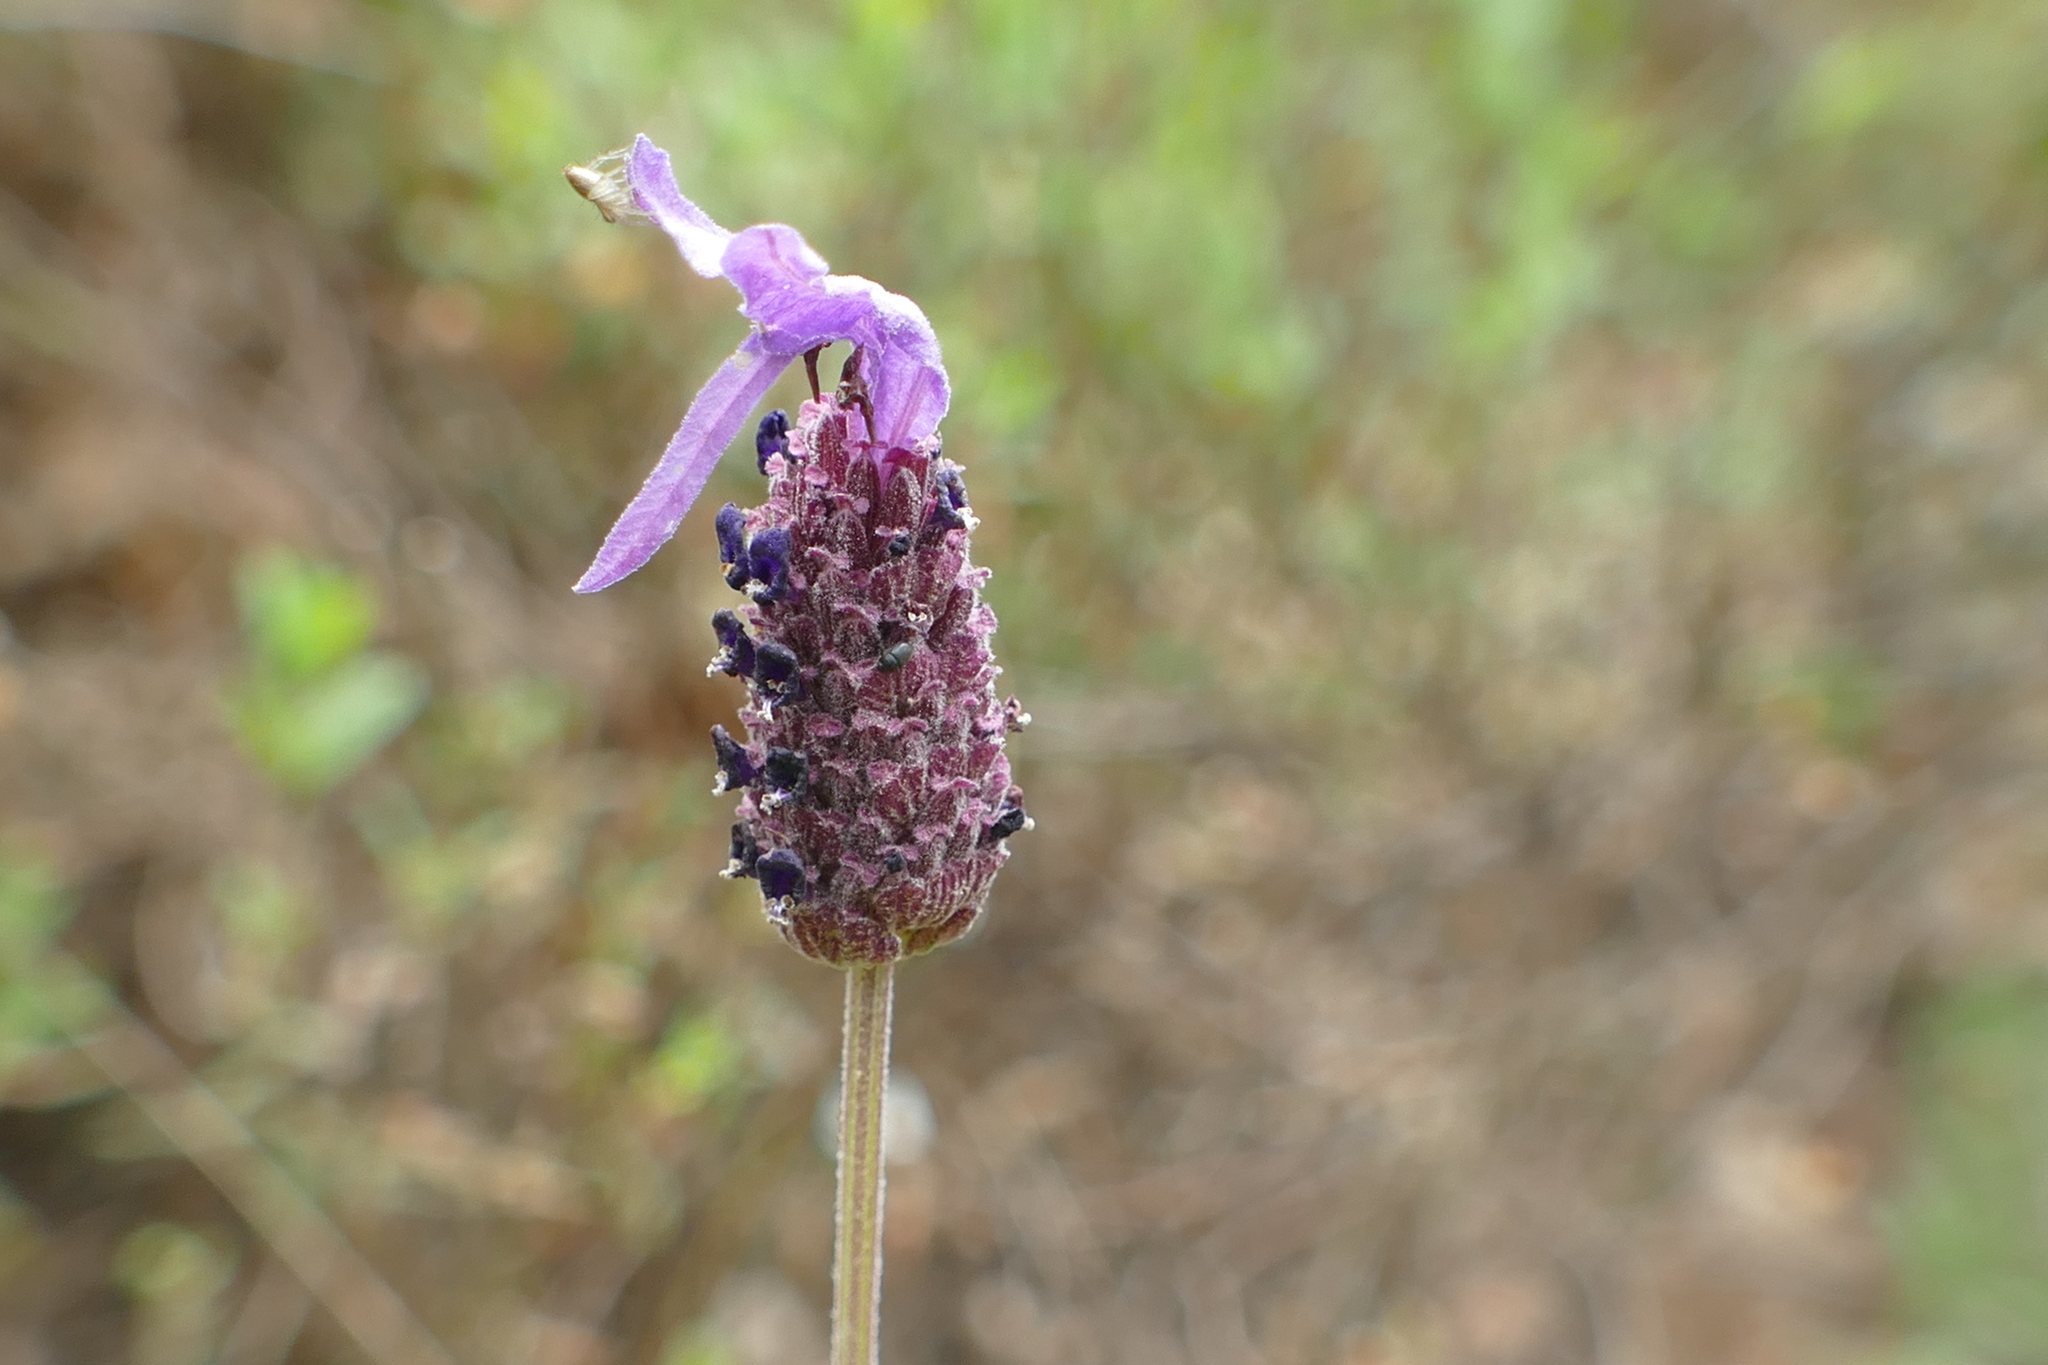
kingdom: Plantae
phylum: Tracheophyta
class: Magnoliopsida
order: Lamiales
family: Lamiaceae
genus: Lavandula
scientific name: Lavandula pedunculata
